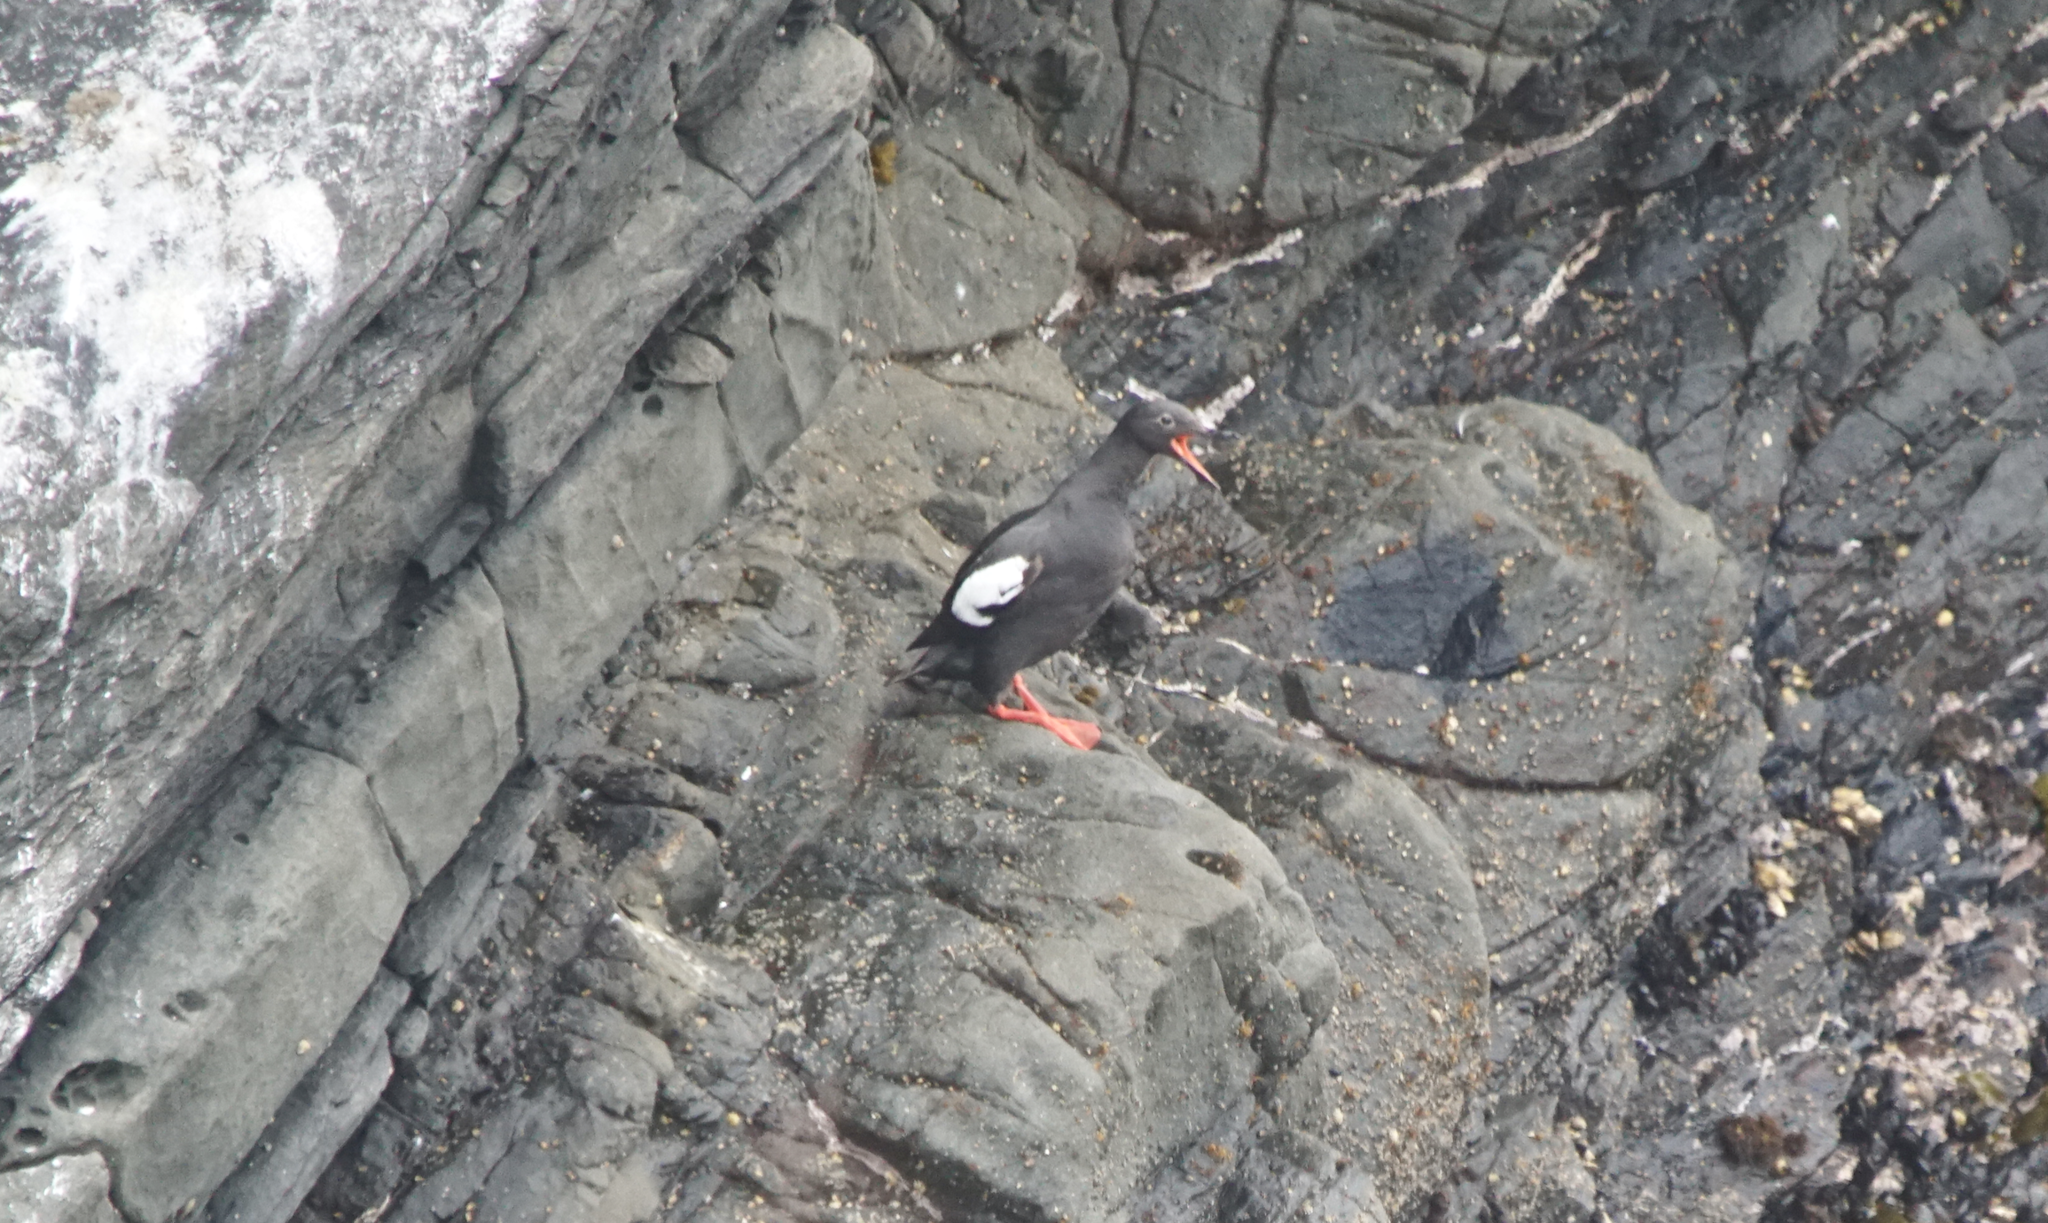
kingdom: Animalia
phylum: Chordata
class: Aves
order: Charadriiformes
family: Alcidae
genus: Cepphus
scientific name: Cepphus columba
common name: Pigeon guillemot
